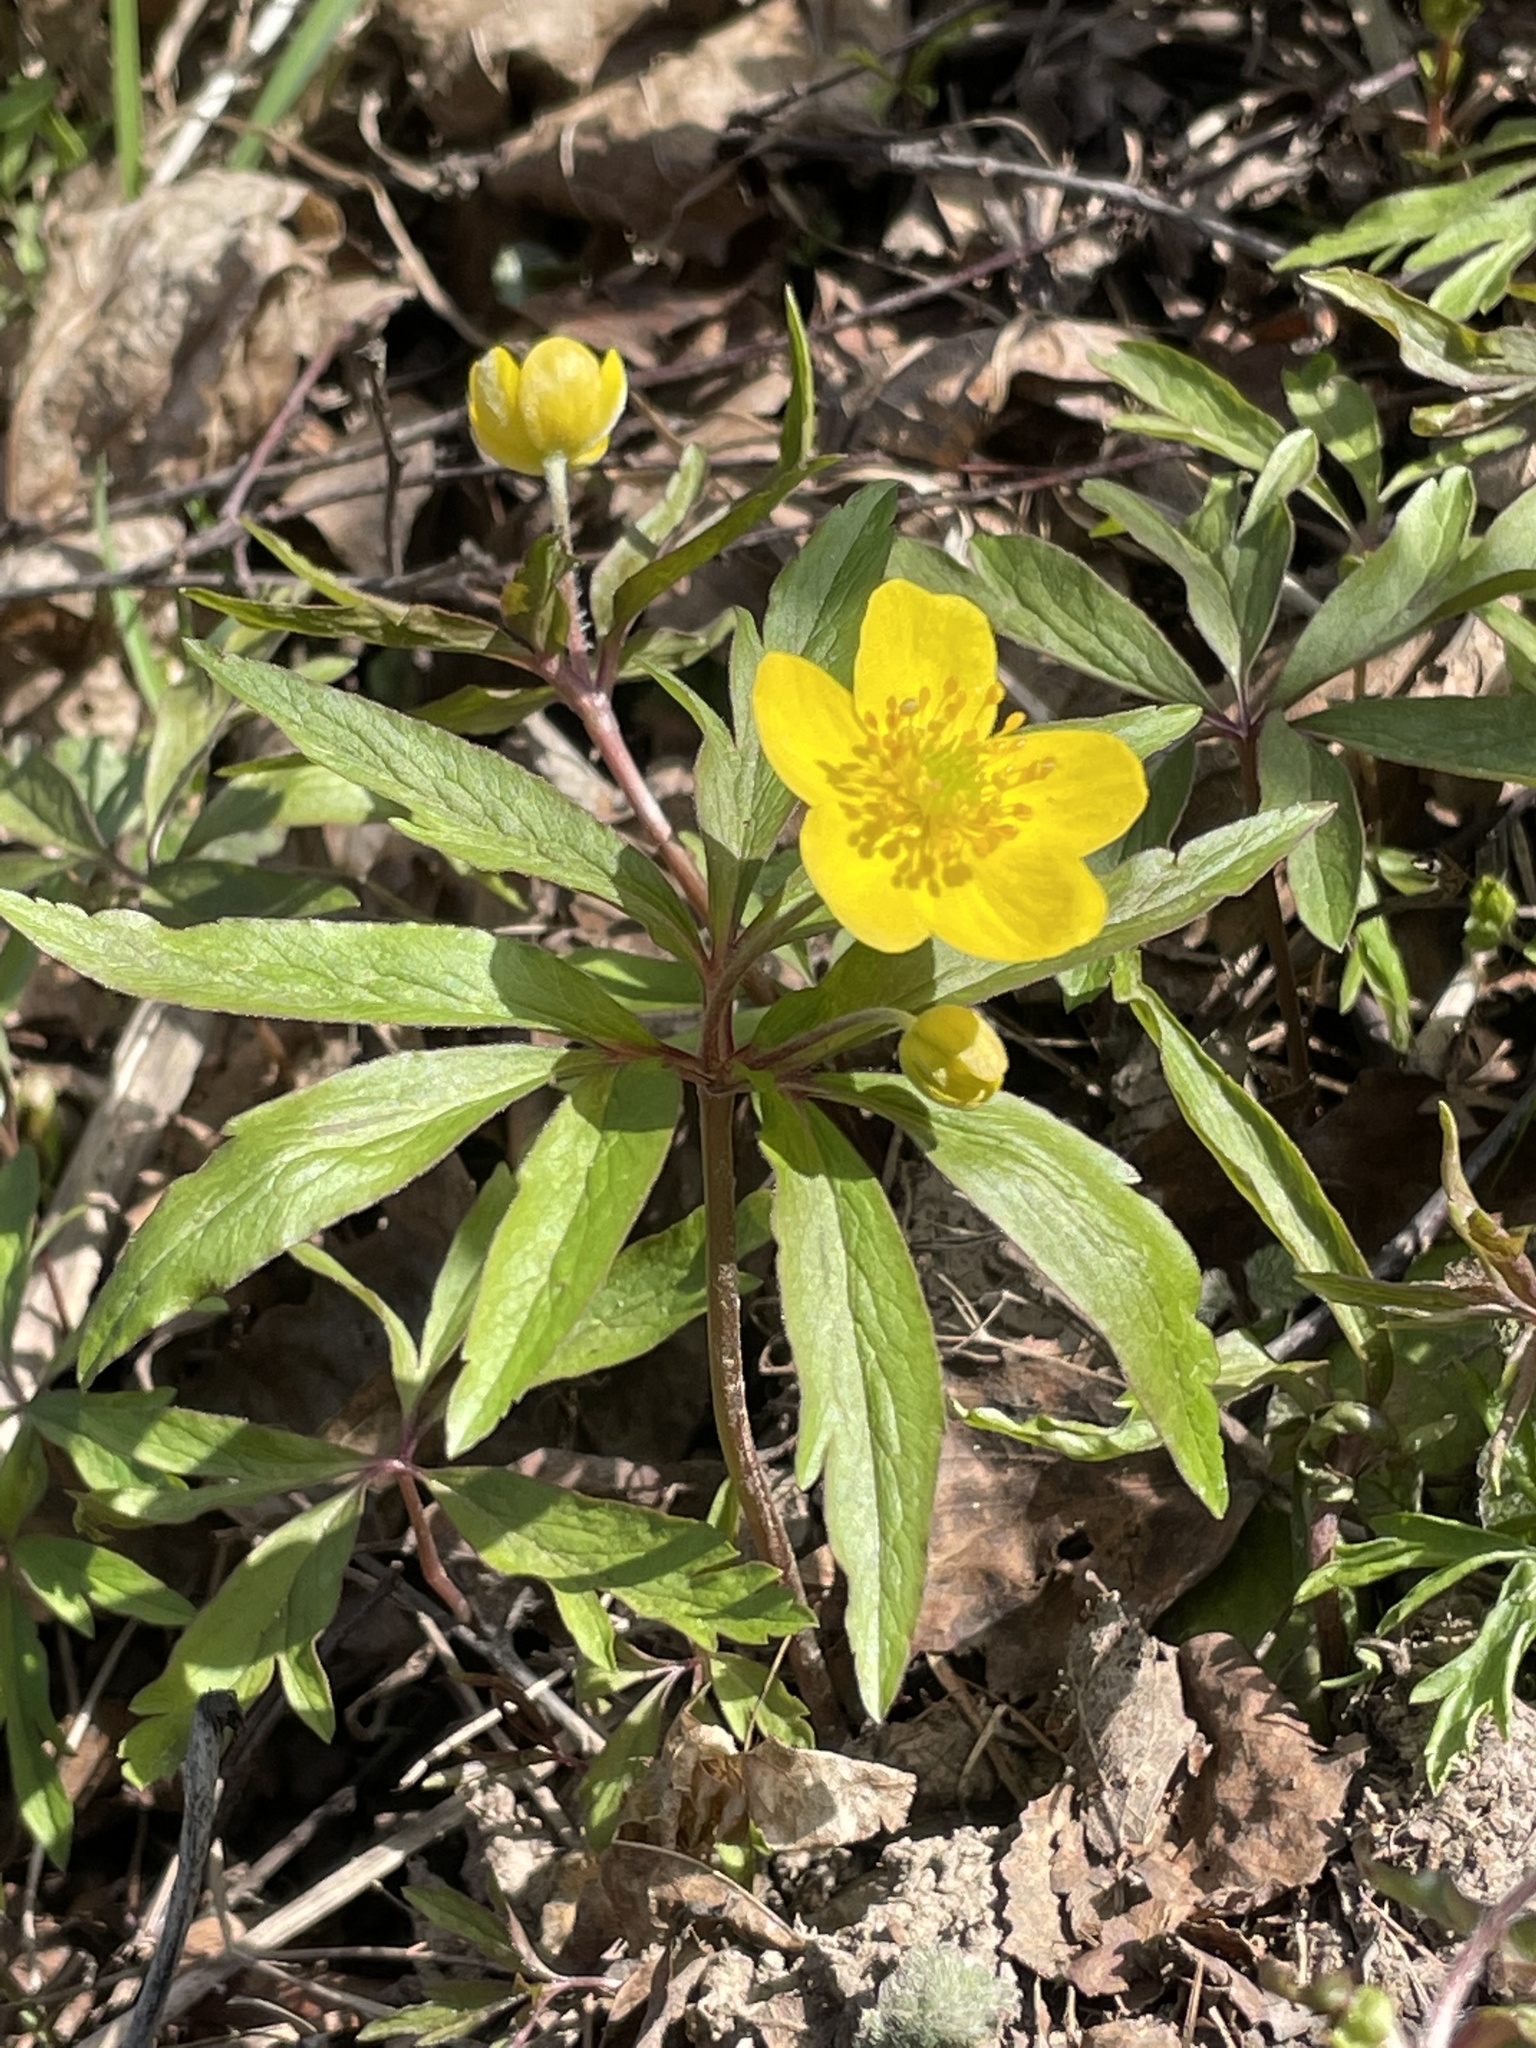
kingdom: Plantae
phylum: Tracheophyta
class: Magnoliopsida
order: Ranunculales
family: Ranunculaceae
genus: Anemone
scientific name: Anemone ranunculoides
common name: Yellow anemone
